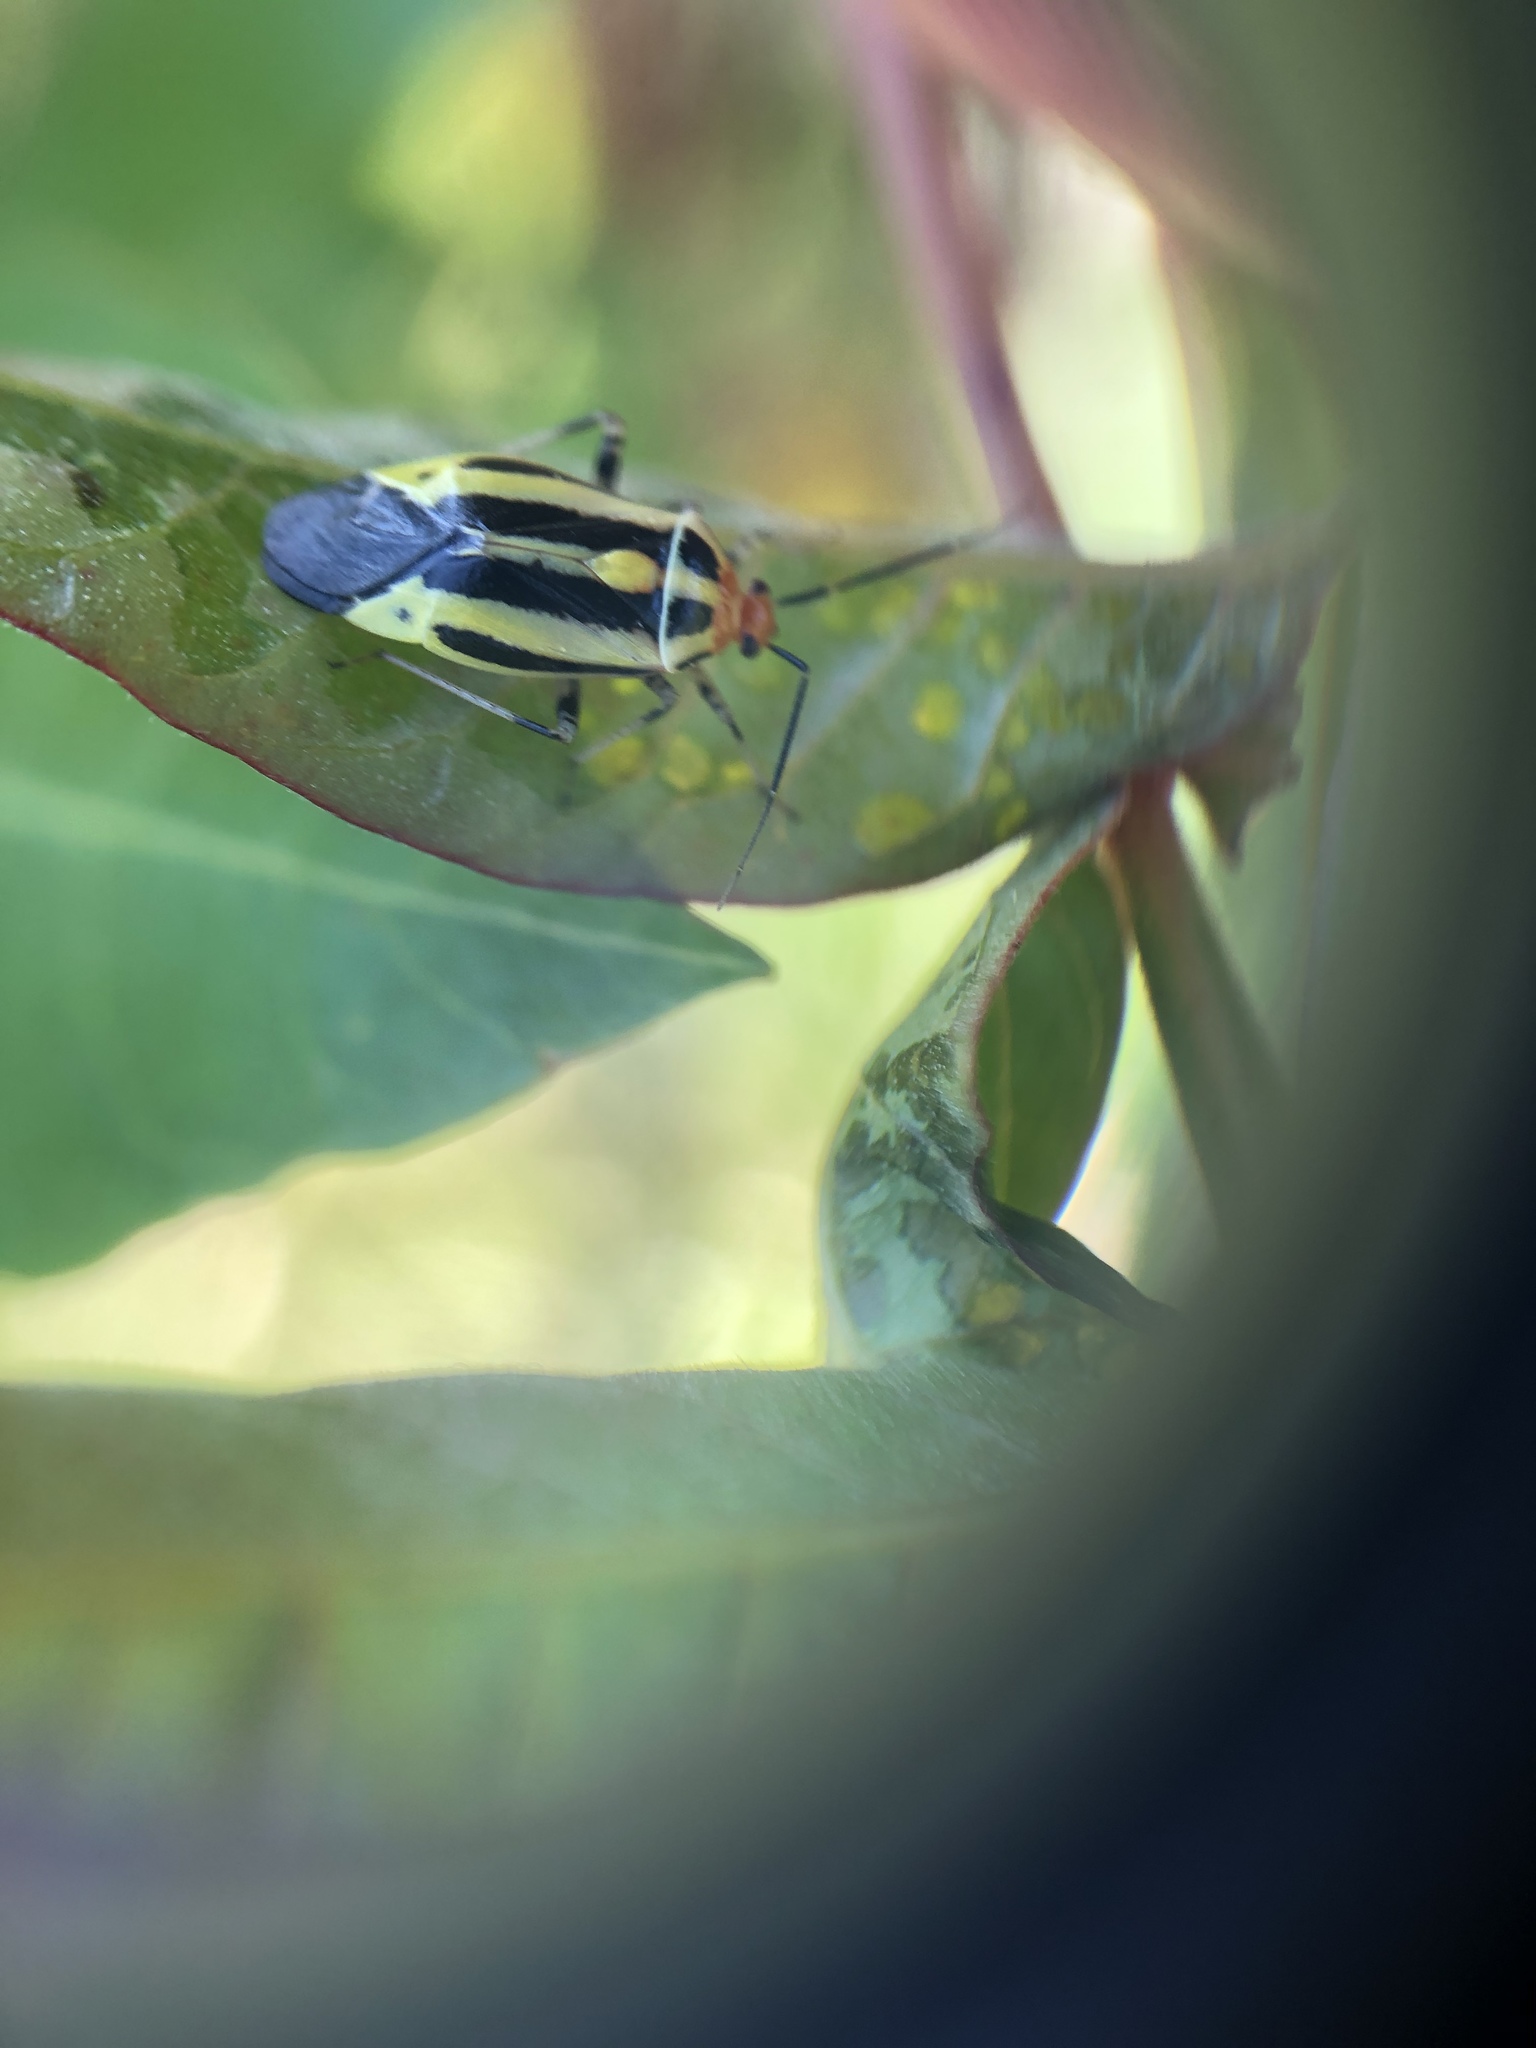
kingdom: Animalia
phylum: Arthropoda
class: Insecta
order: Hemiptera
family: Miridae
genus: Poecilocapsus
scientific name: Poecilocapsus lineatus
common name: Four-lined plant bug
